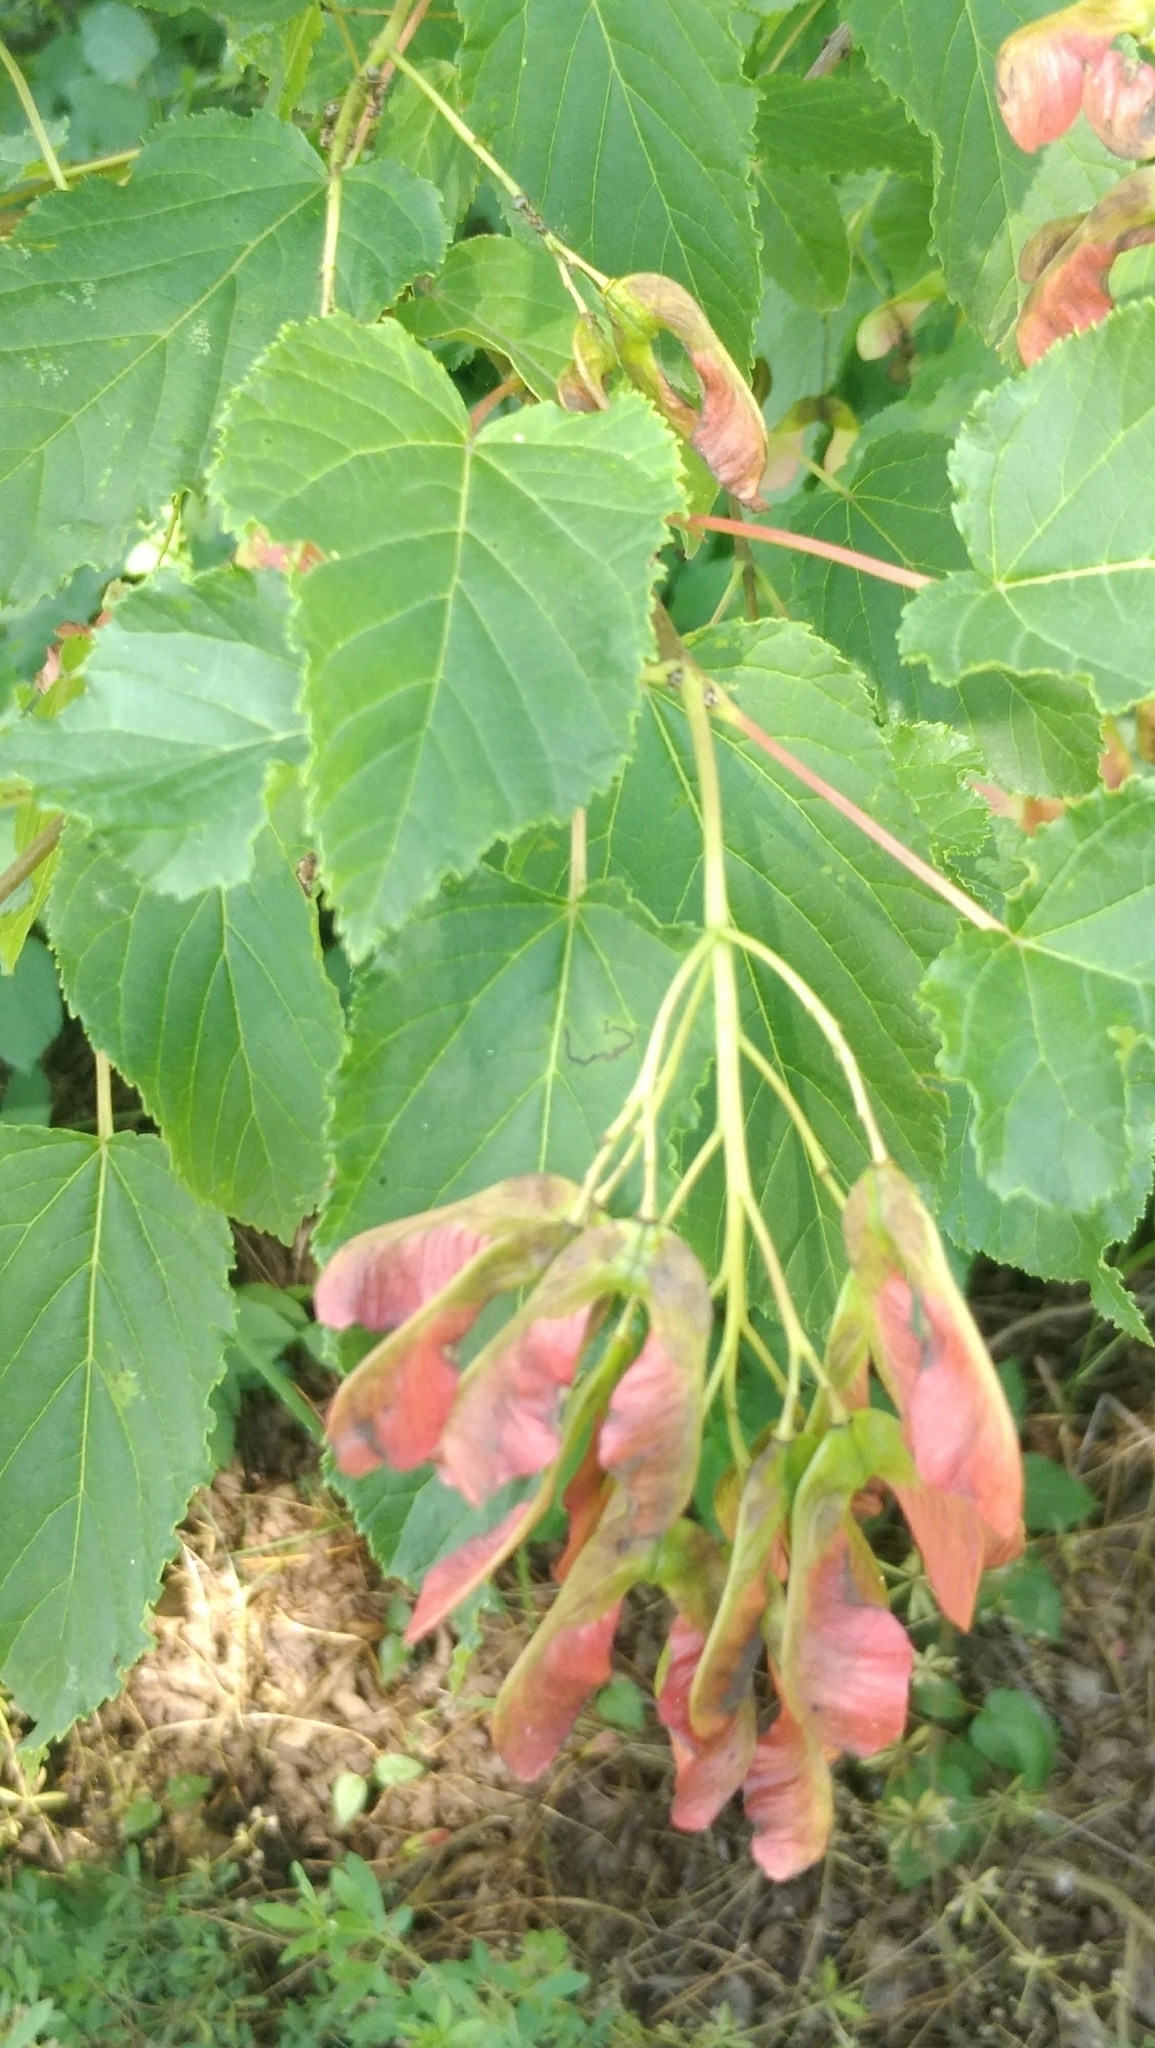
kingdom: Plantae
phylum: Tracheophyta
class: Magnoliopsida
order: Sapindales
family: Sapindaceae
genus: Acer
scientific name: Acer tataricum
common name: Tartar maple
